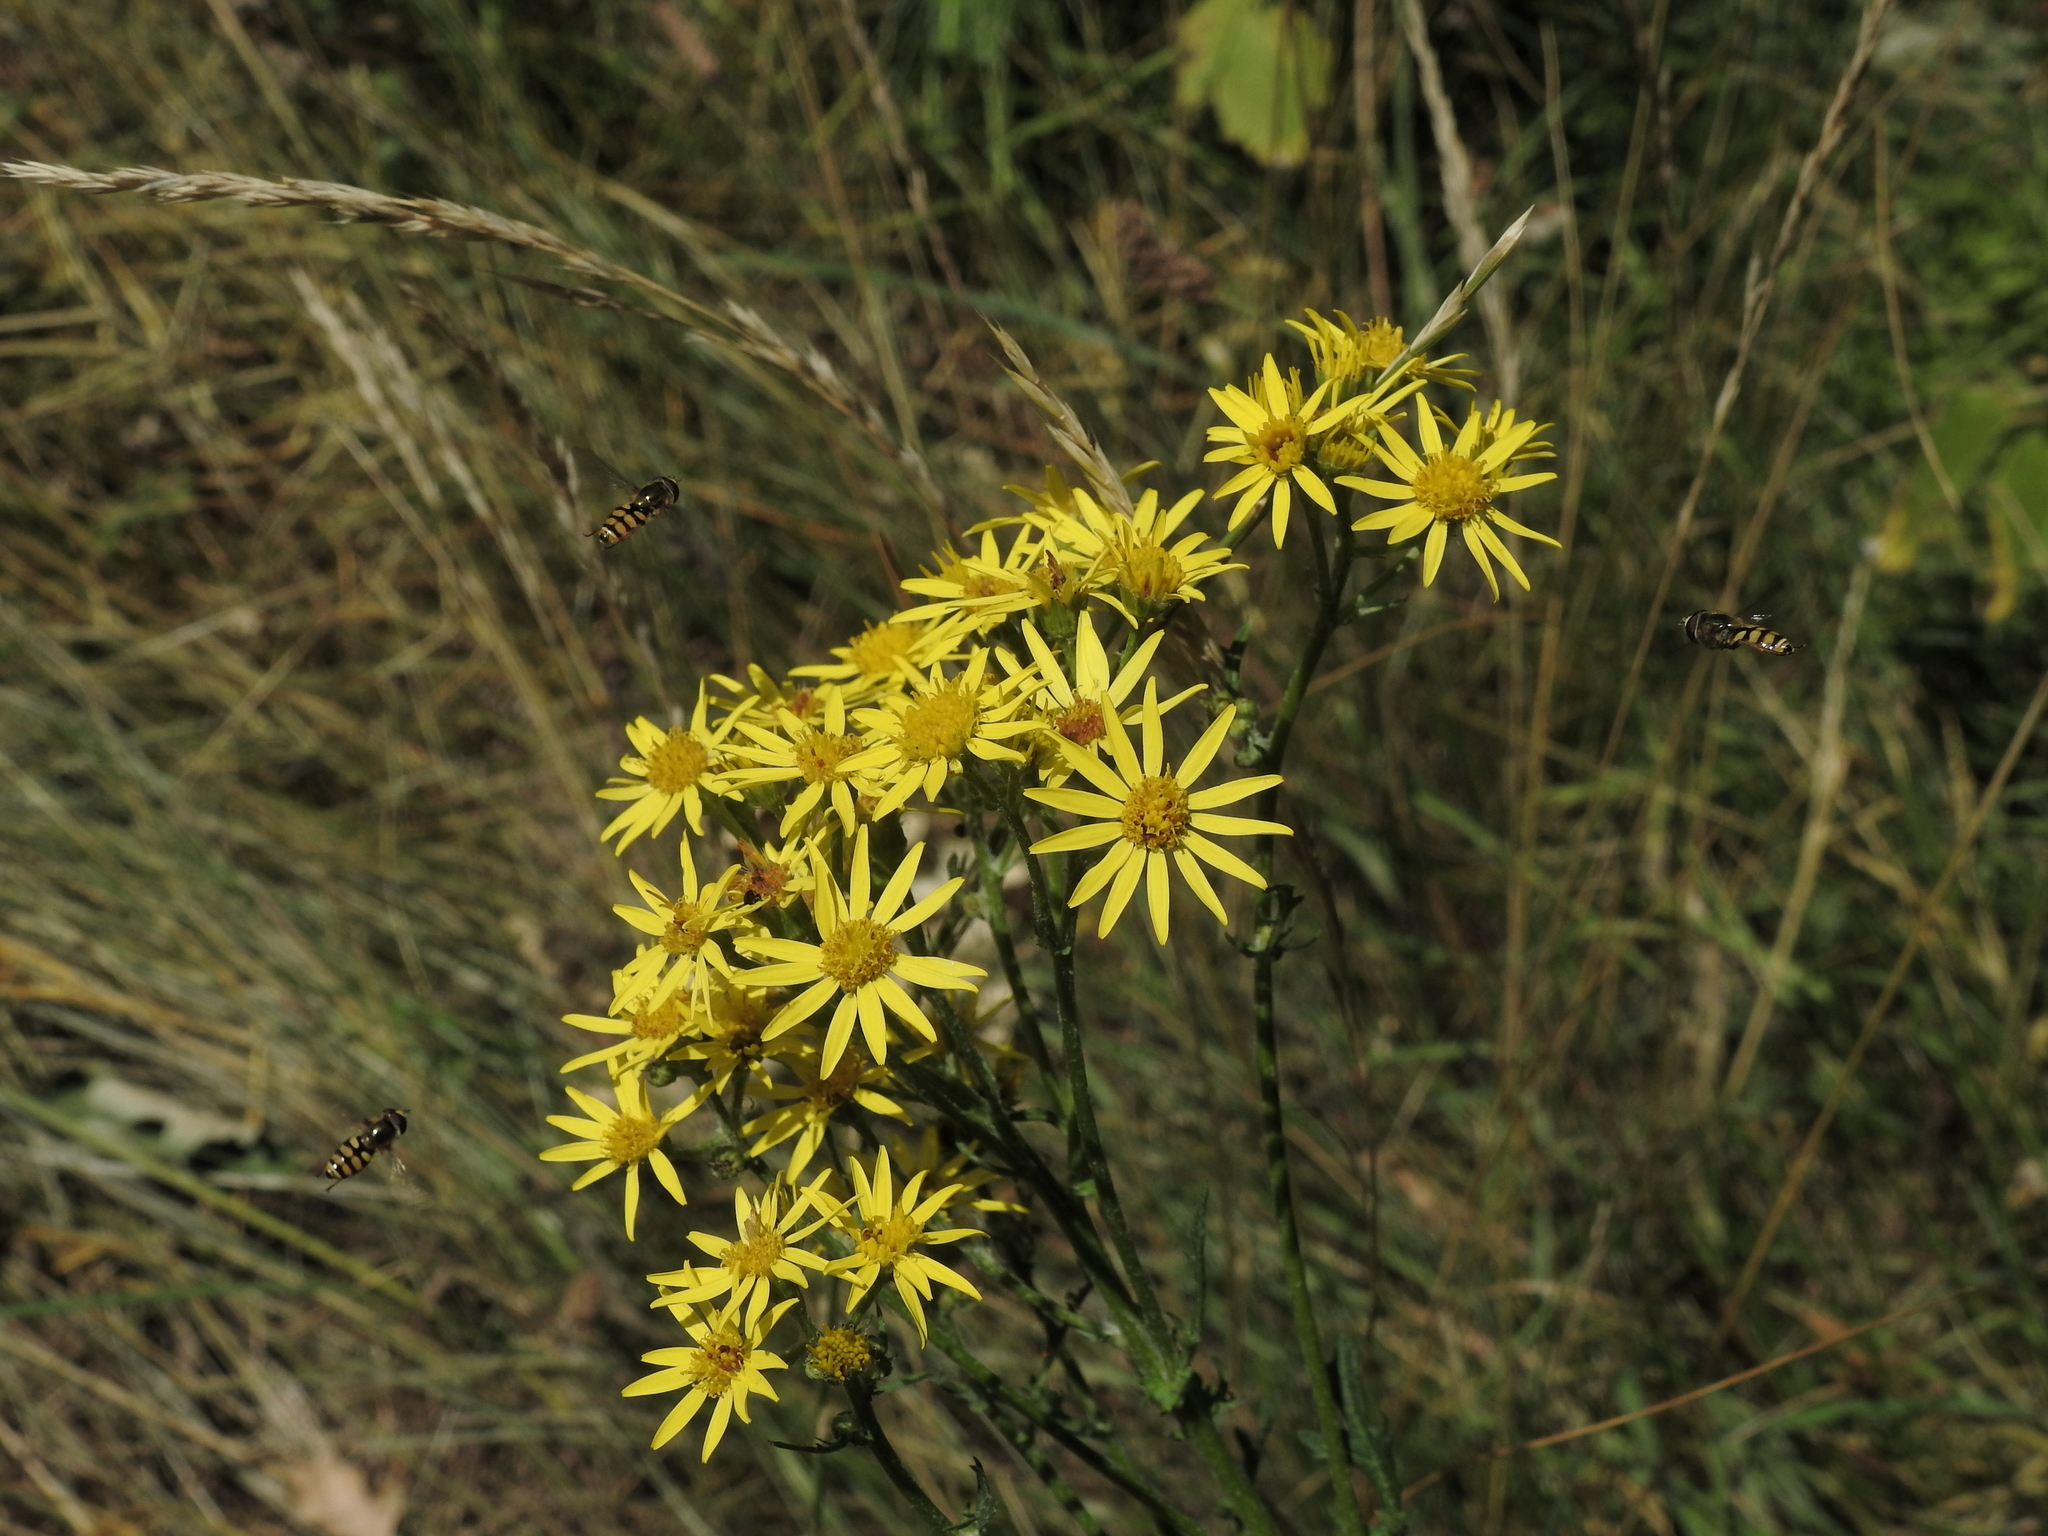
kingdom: Plantae
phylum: Tracheophyta
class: Magnoliopsida
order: Asterales
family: Asteraceae
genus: Jacobaea
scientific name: Jacobaea vulgaris
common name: Stinking willie
